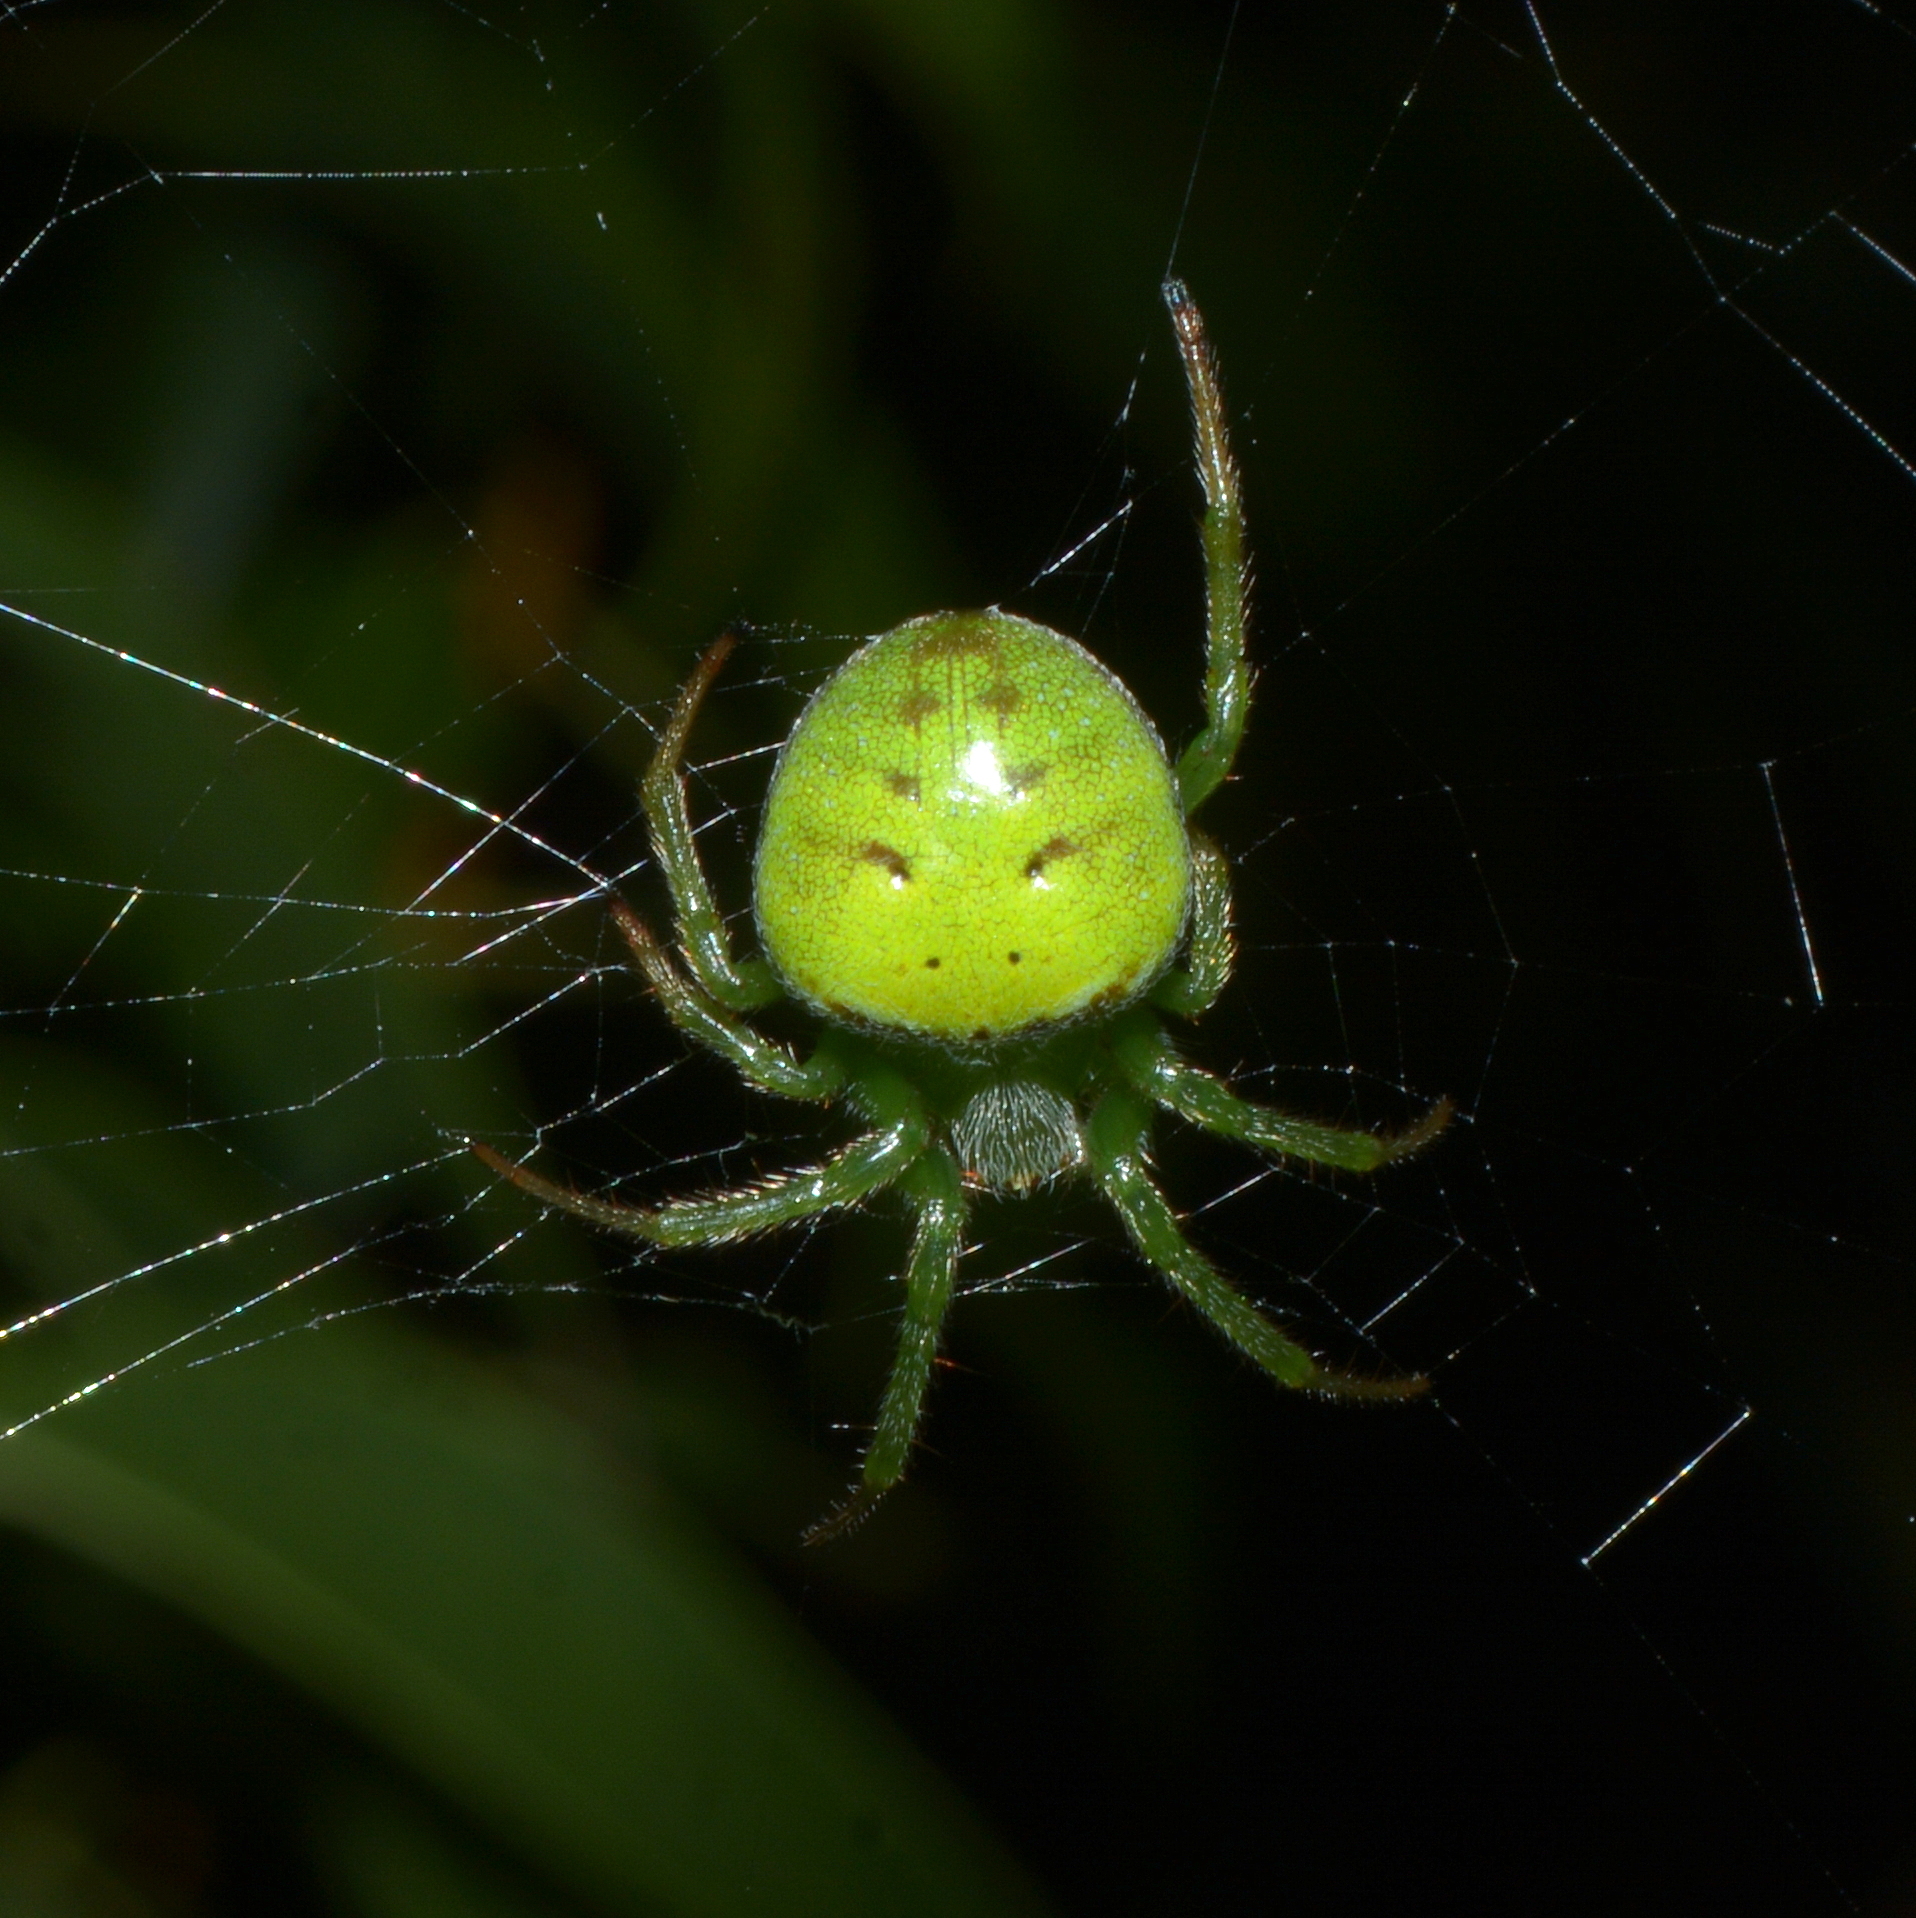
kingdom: Animalia
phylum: Arthropoda
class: Arachnida
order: Araneae
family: Araneidae
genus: Araneus
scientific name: Araneus unanimus
